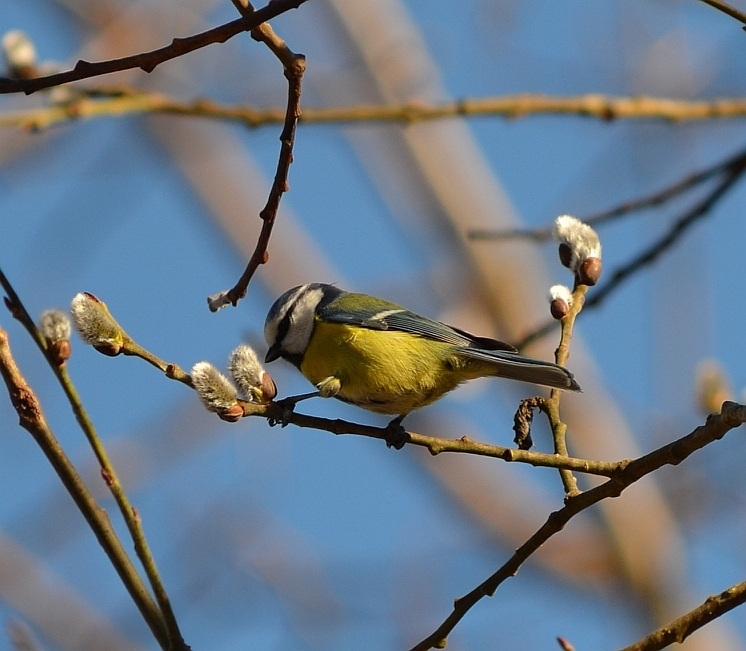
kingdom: Animalia
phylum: Chordata
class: Aves
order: Passeriformes
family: Paridae
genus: Cyanistes
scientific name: Cyanistes caeruleus
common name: Eurasian blue tit
